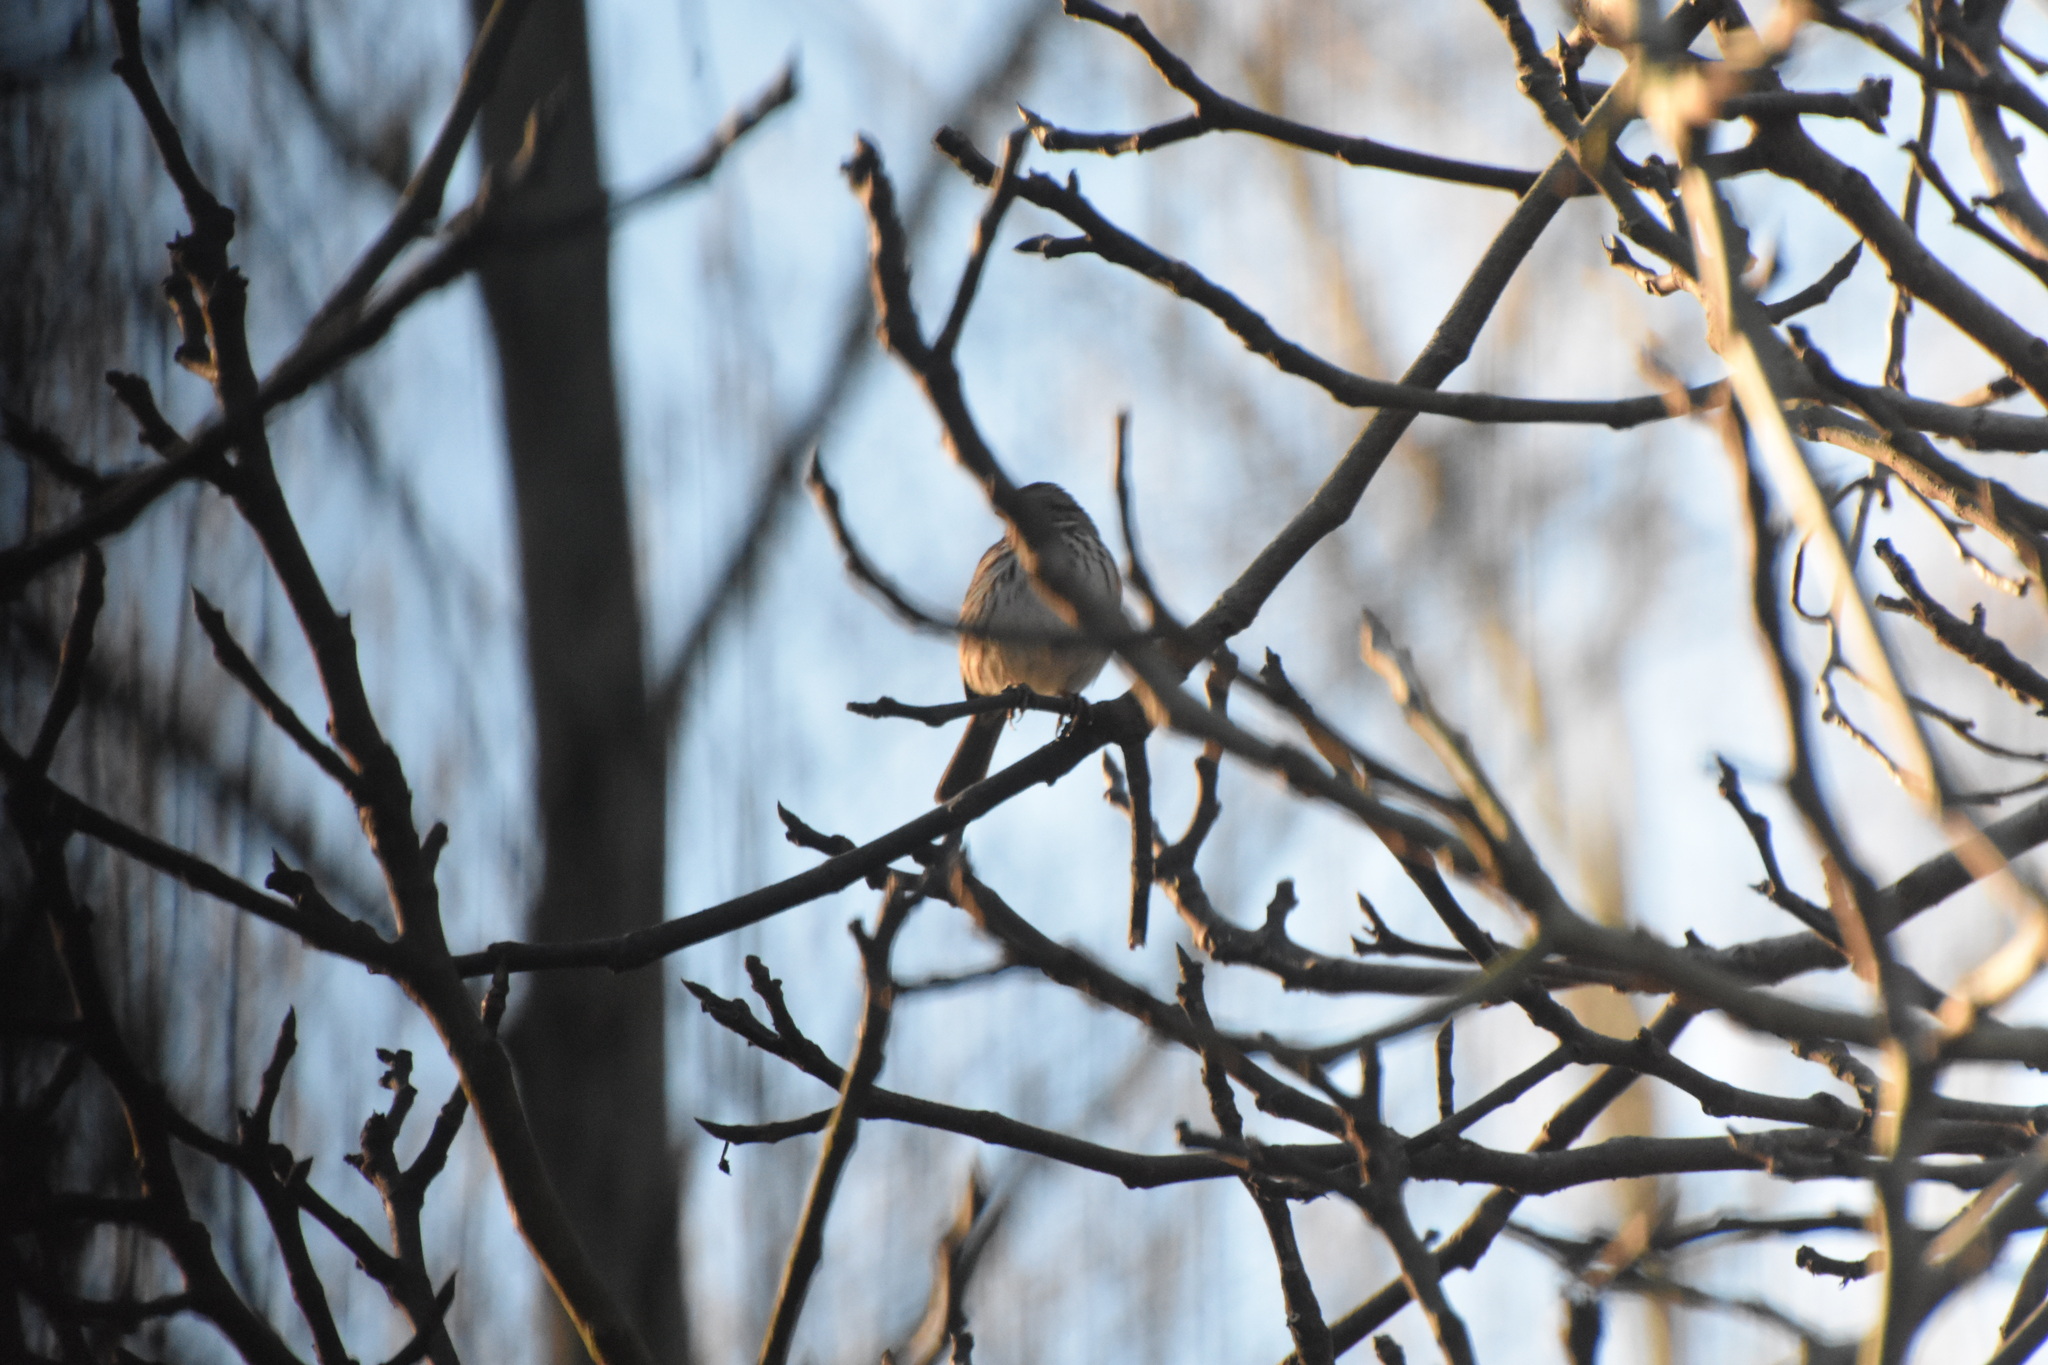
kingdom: Animalia
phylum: Chordata
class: Aves
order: Passeriformes
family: Passerellidae
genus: Melospiza
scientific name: Melospiza melodia
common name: Song sparrow
